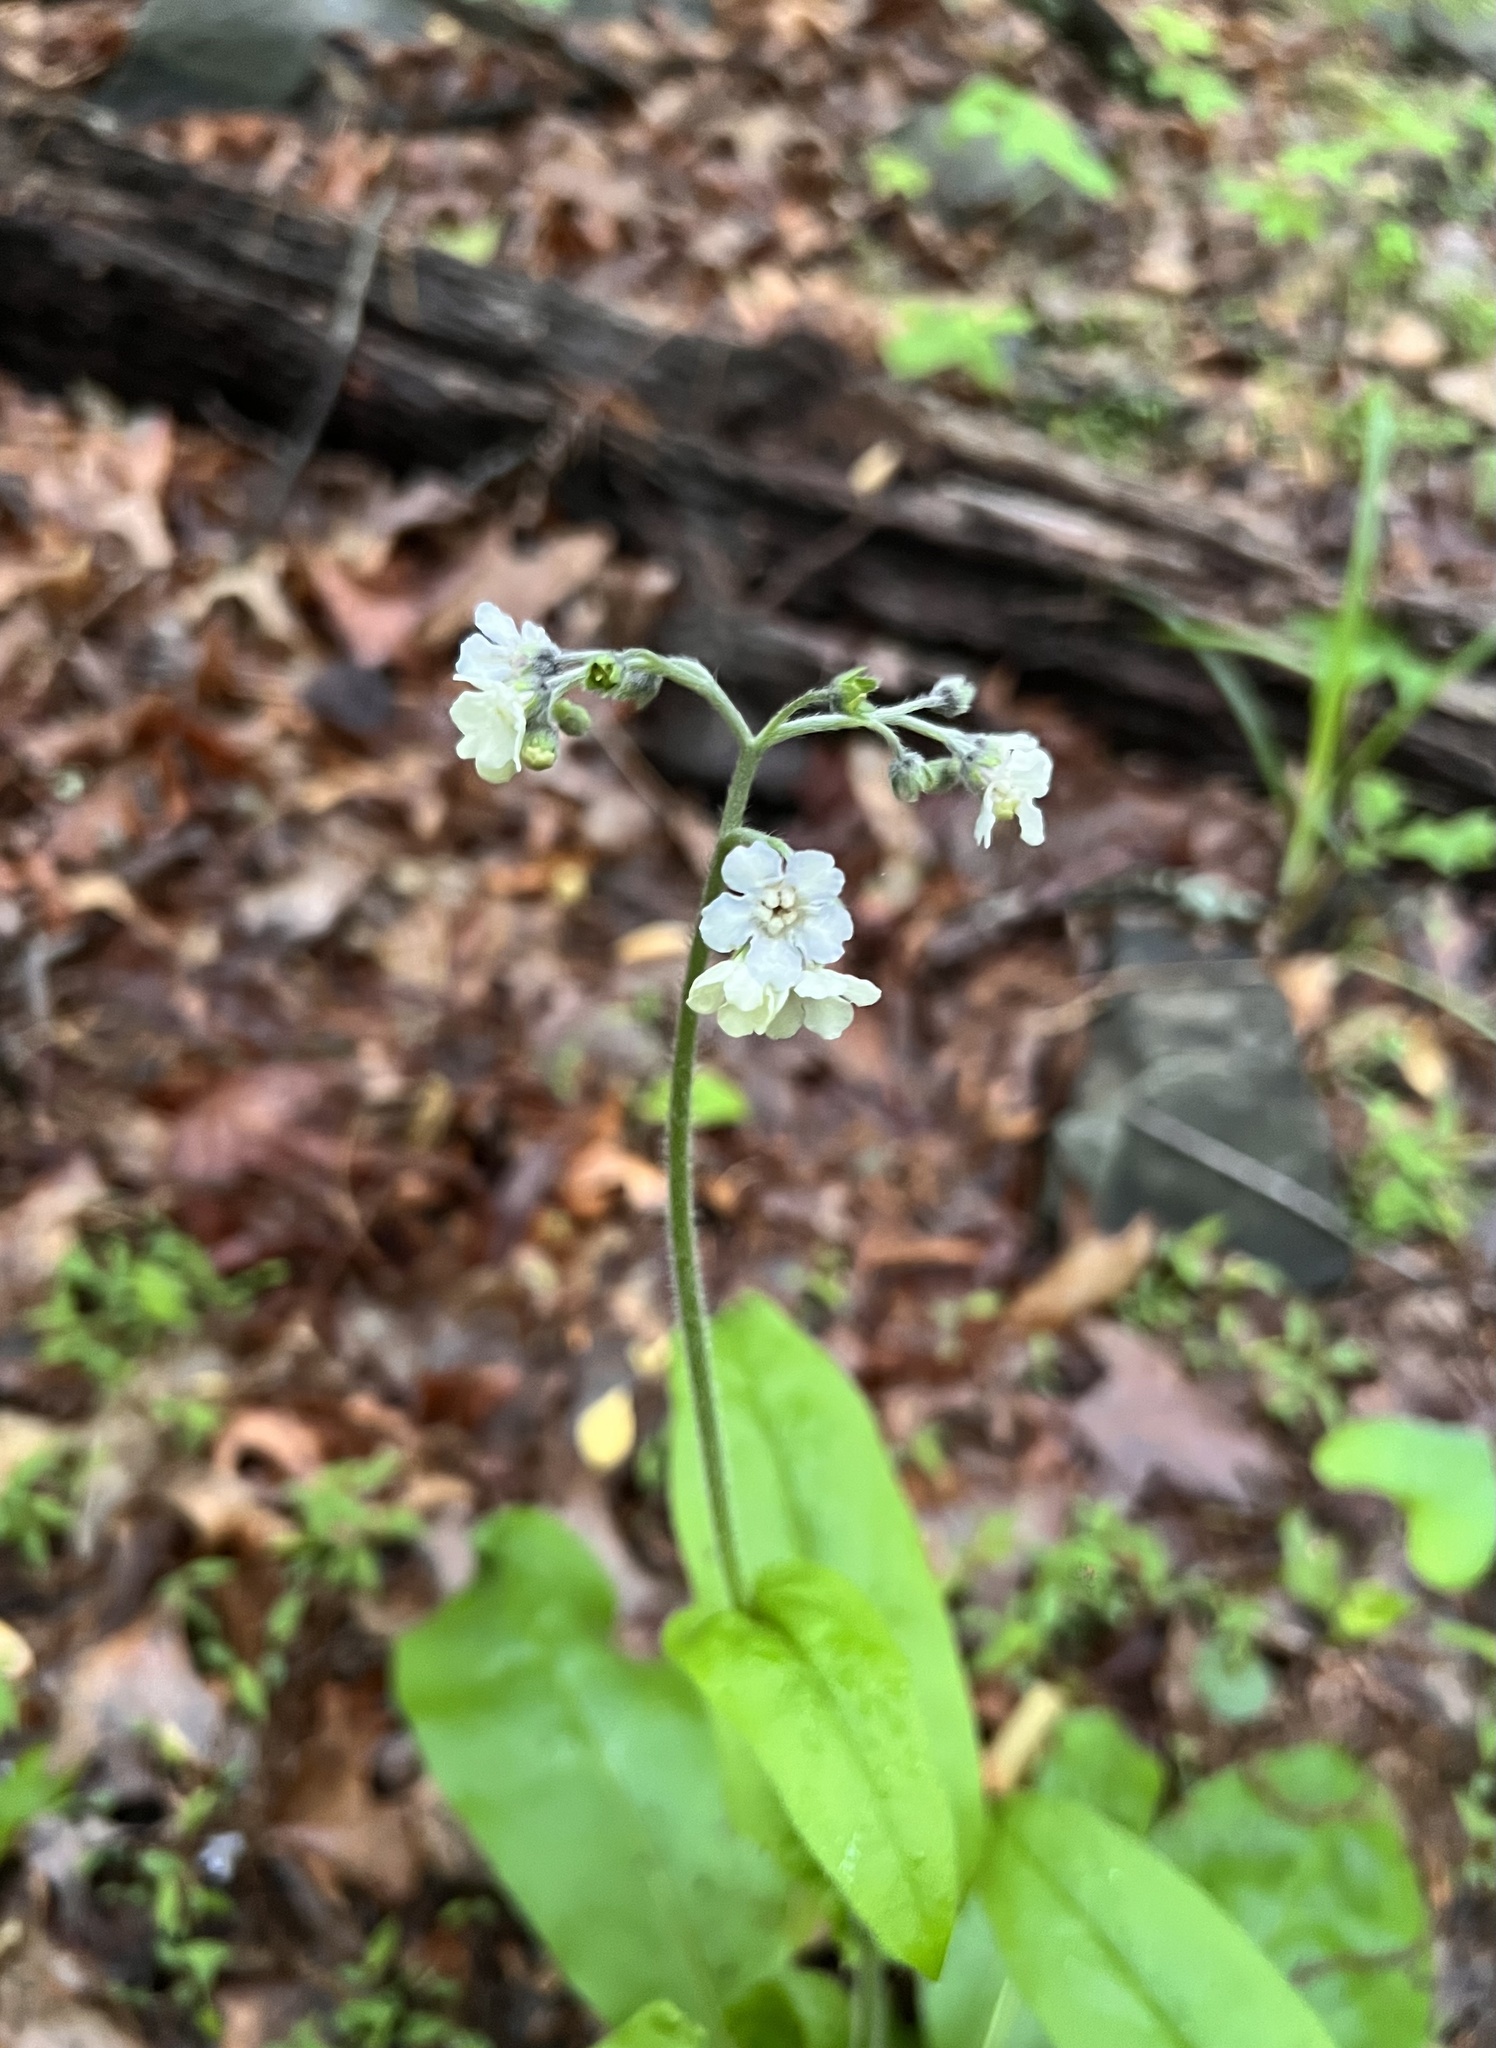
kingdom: Plantae
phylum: Tracheophyta
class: Magnoliopsida
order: Boraginales
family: Boraginaceae
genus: Andersonglossum
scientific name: Andersonglossum virginianum
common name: Wild comfrey
